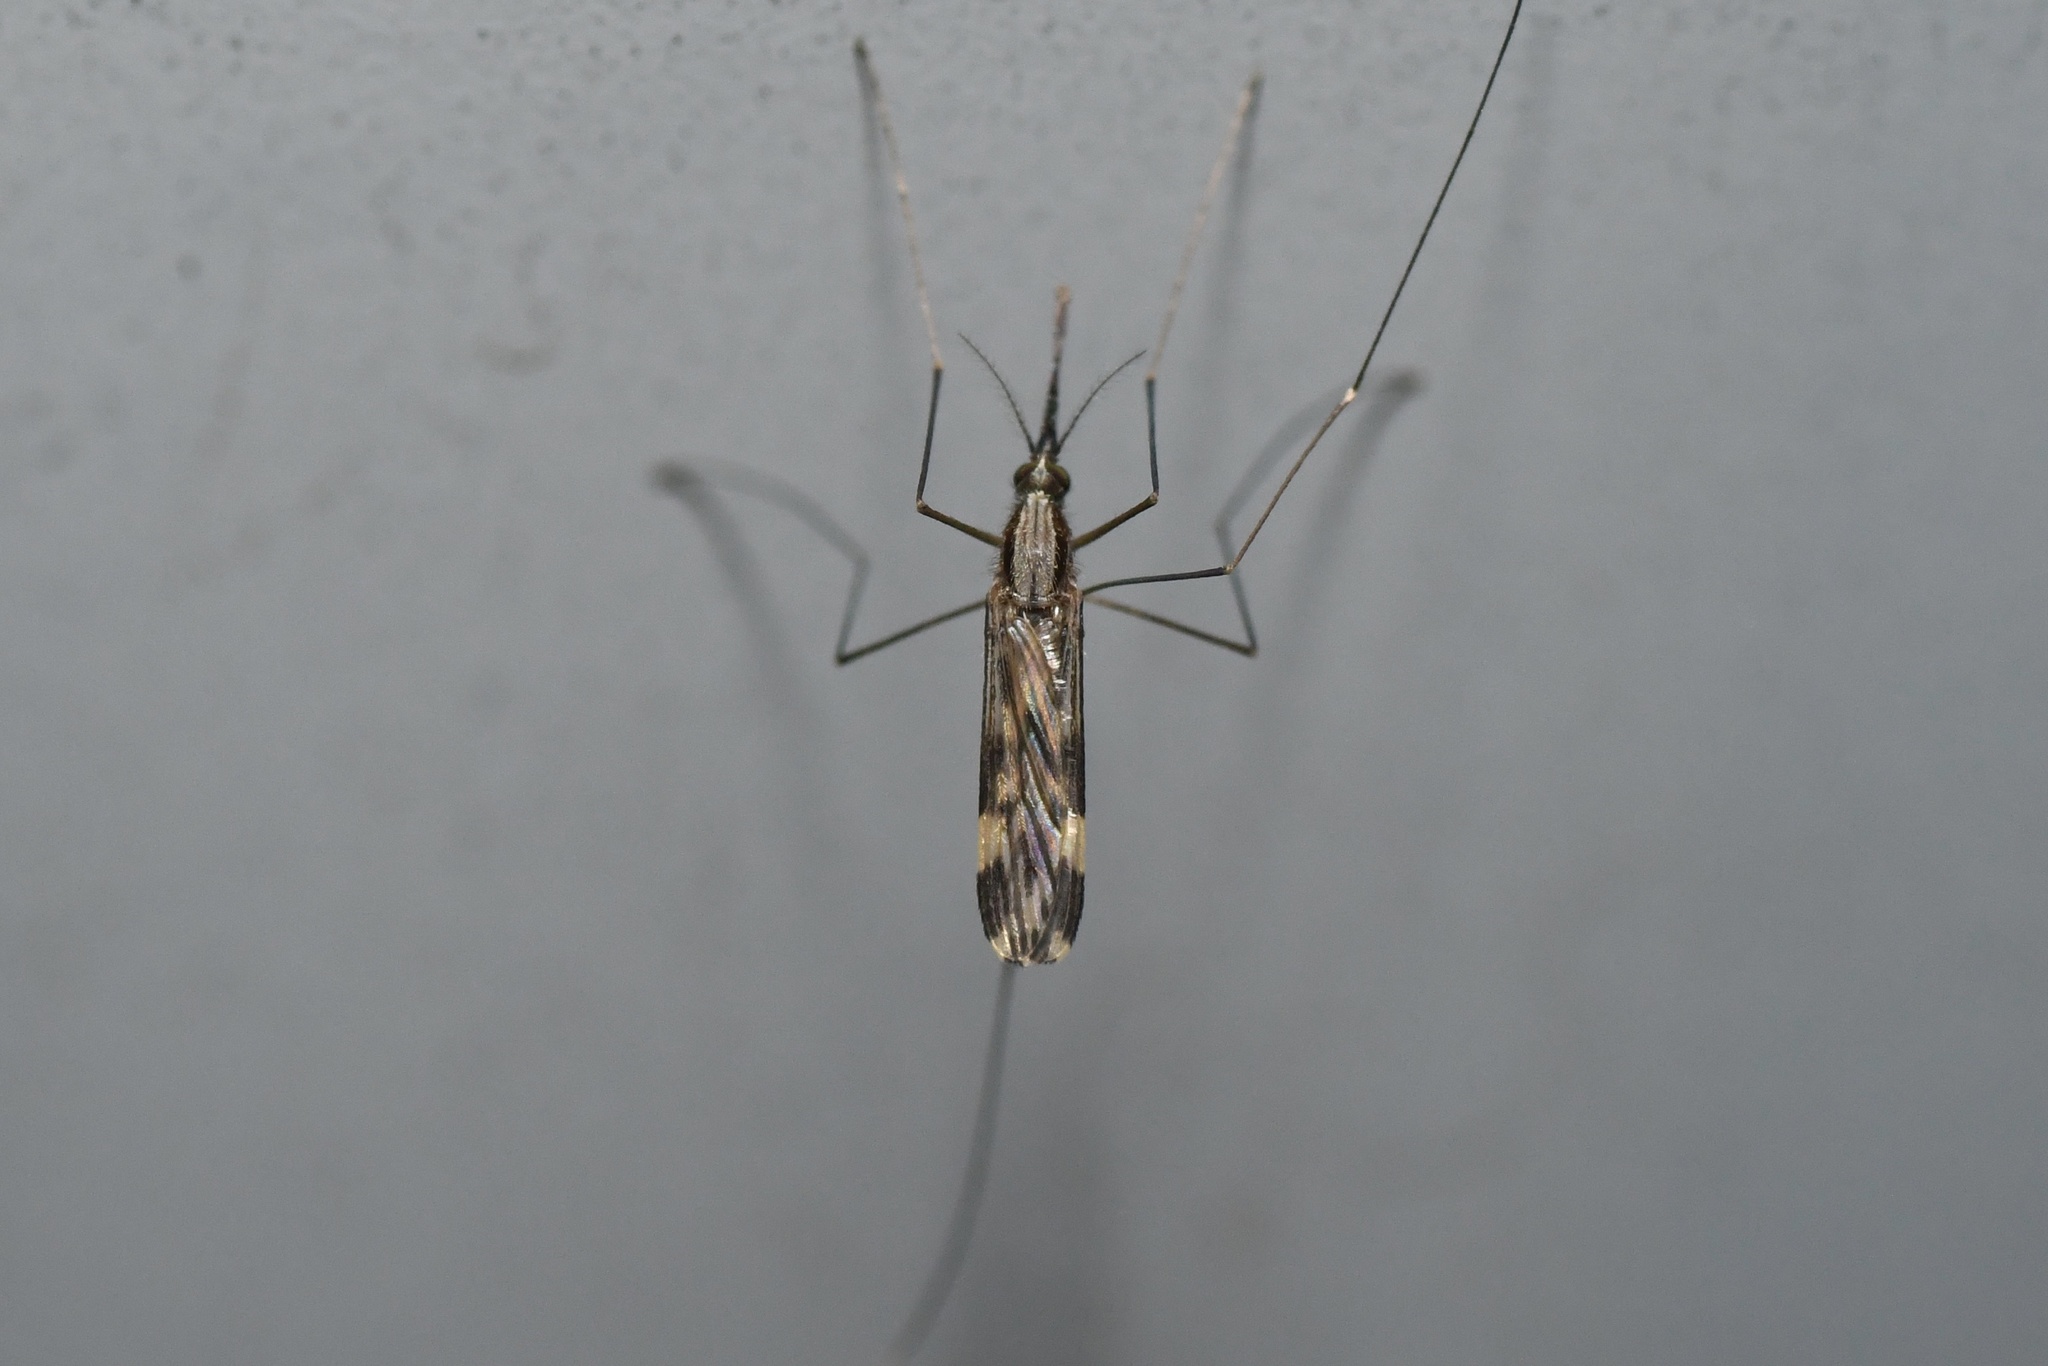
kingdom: Animalia
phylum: Arthropoda
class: Insecta
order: Diptera
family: Culicidae
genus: Anopheles
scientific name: Anopheles punctipennis
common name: Woodland malaria mosquito
